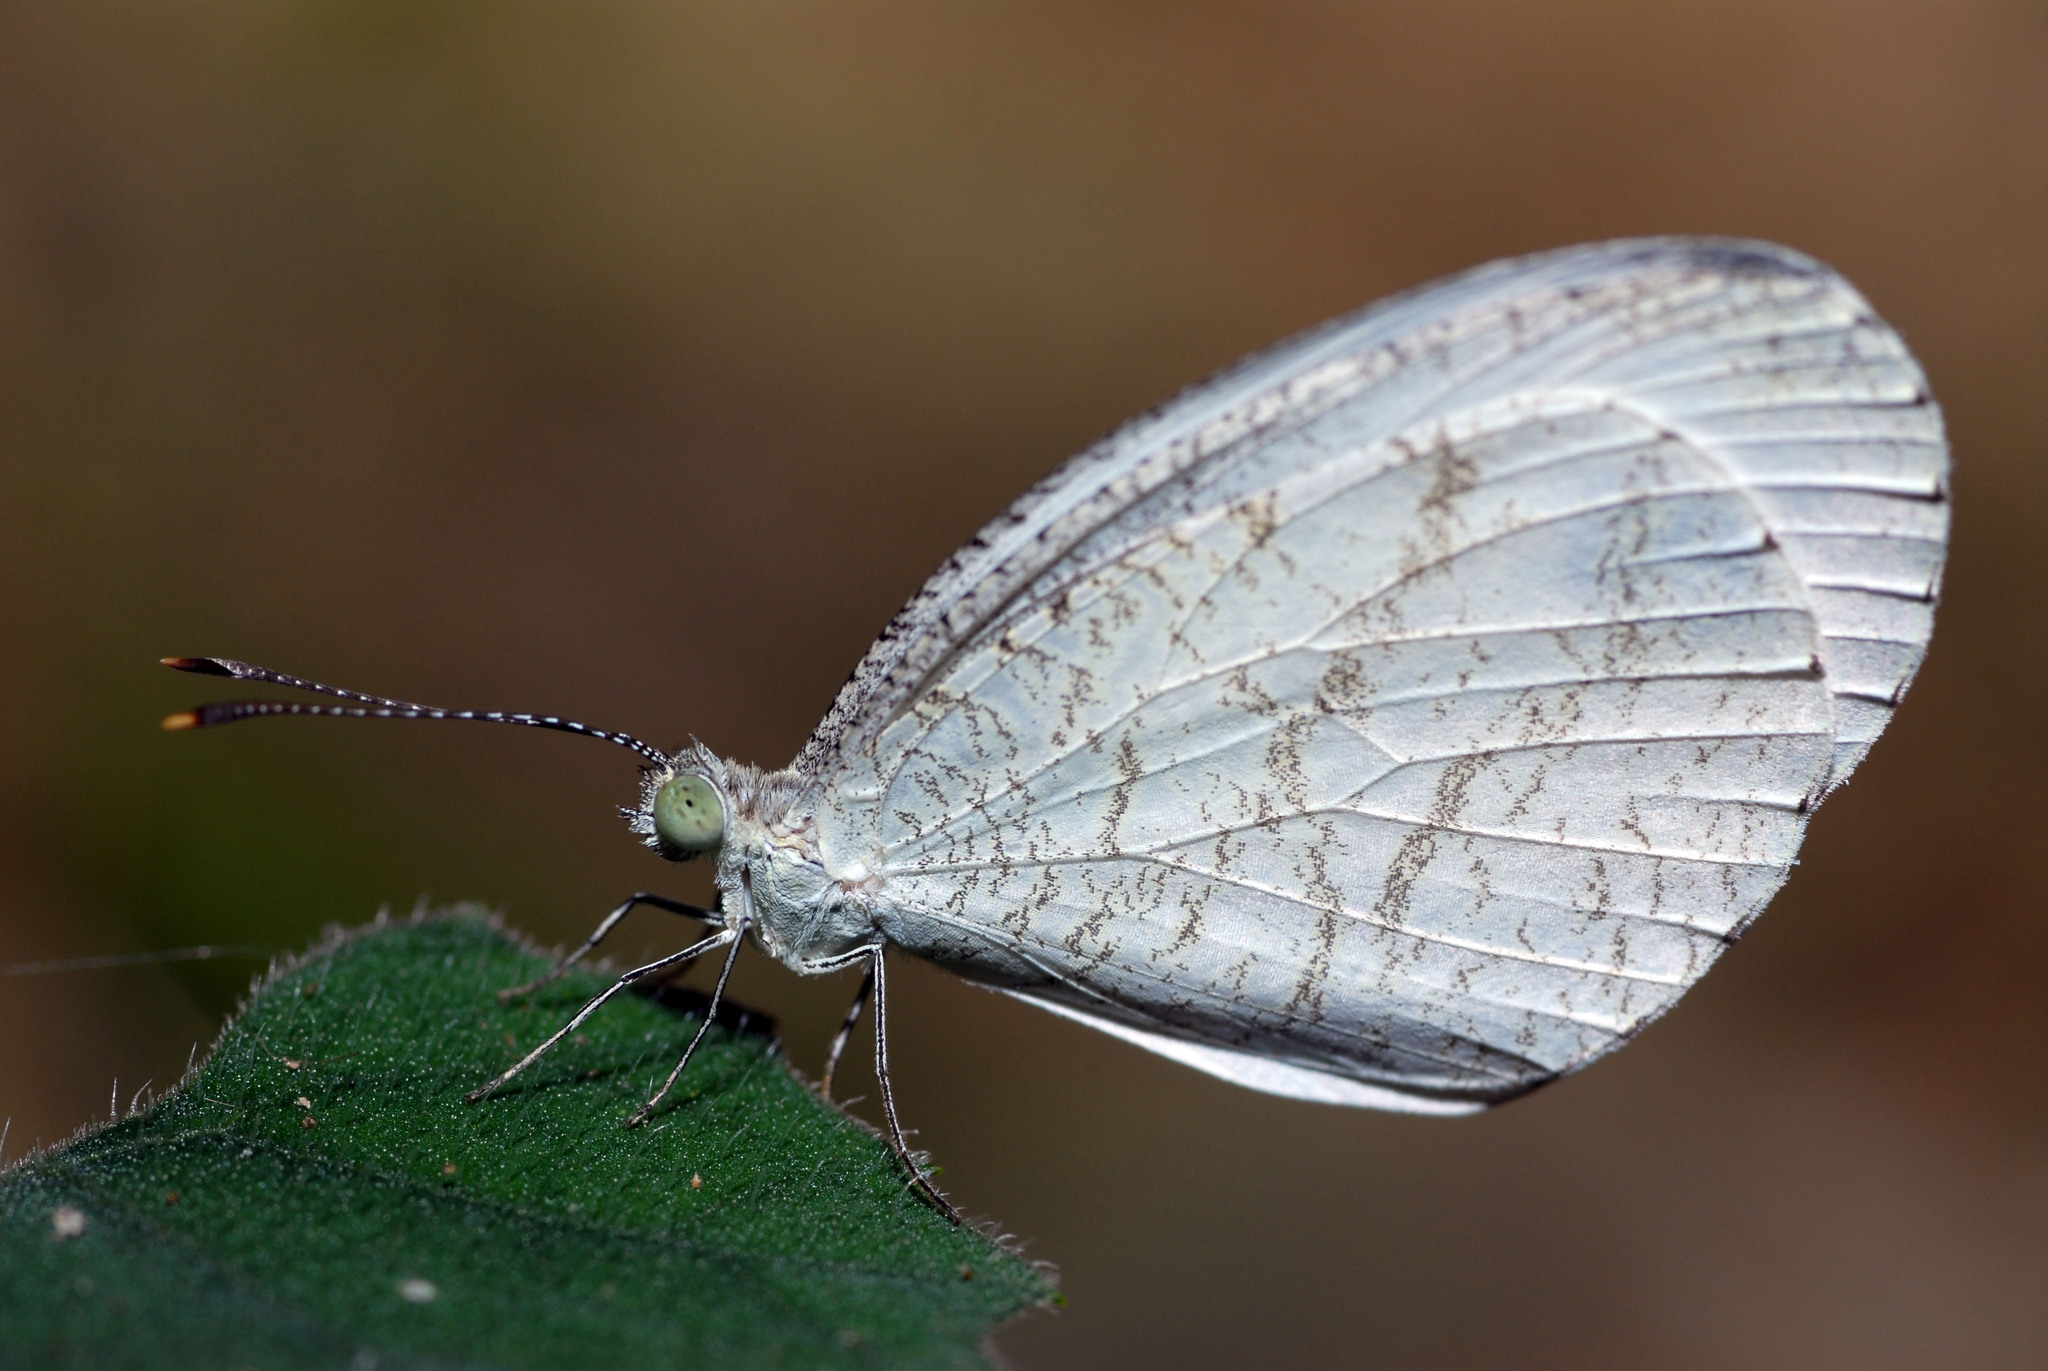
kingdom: Animalia
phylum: Arthropoda
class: Insecta
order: Lepidoptera
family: Pieridae
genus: Leptosia
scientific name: Leptosia nina
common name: Psyche
